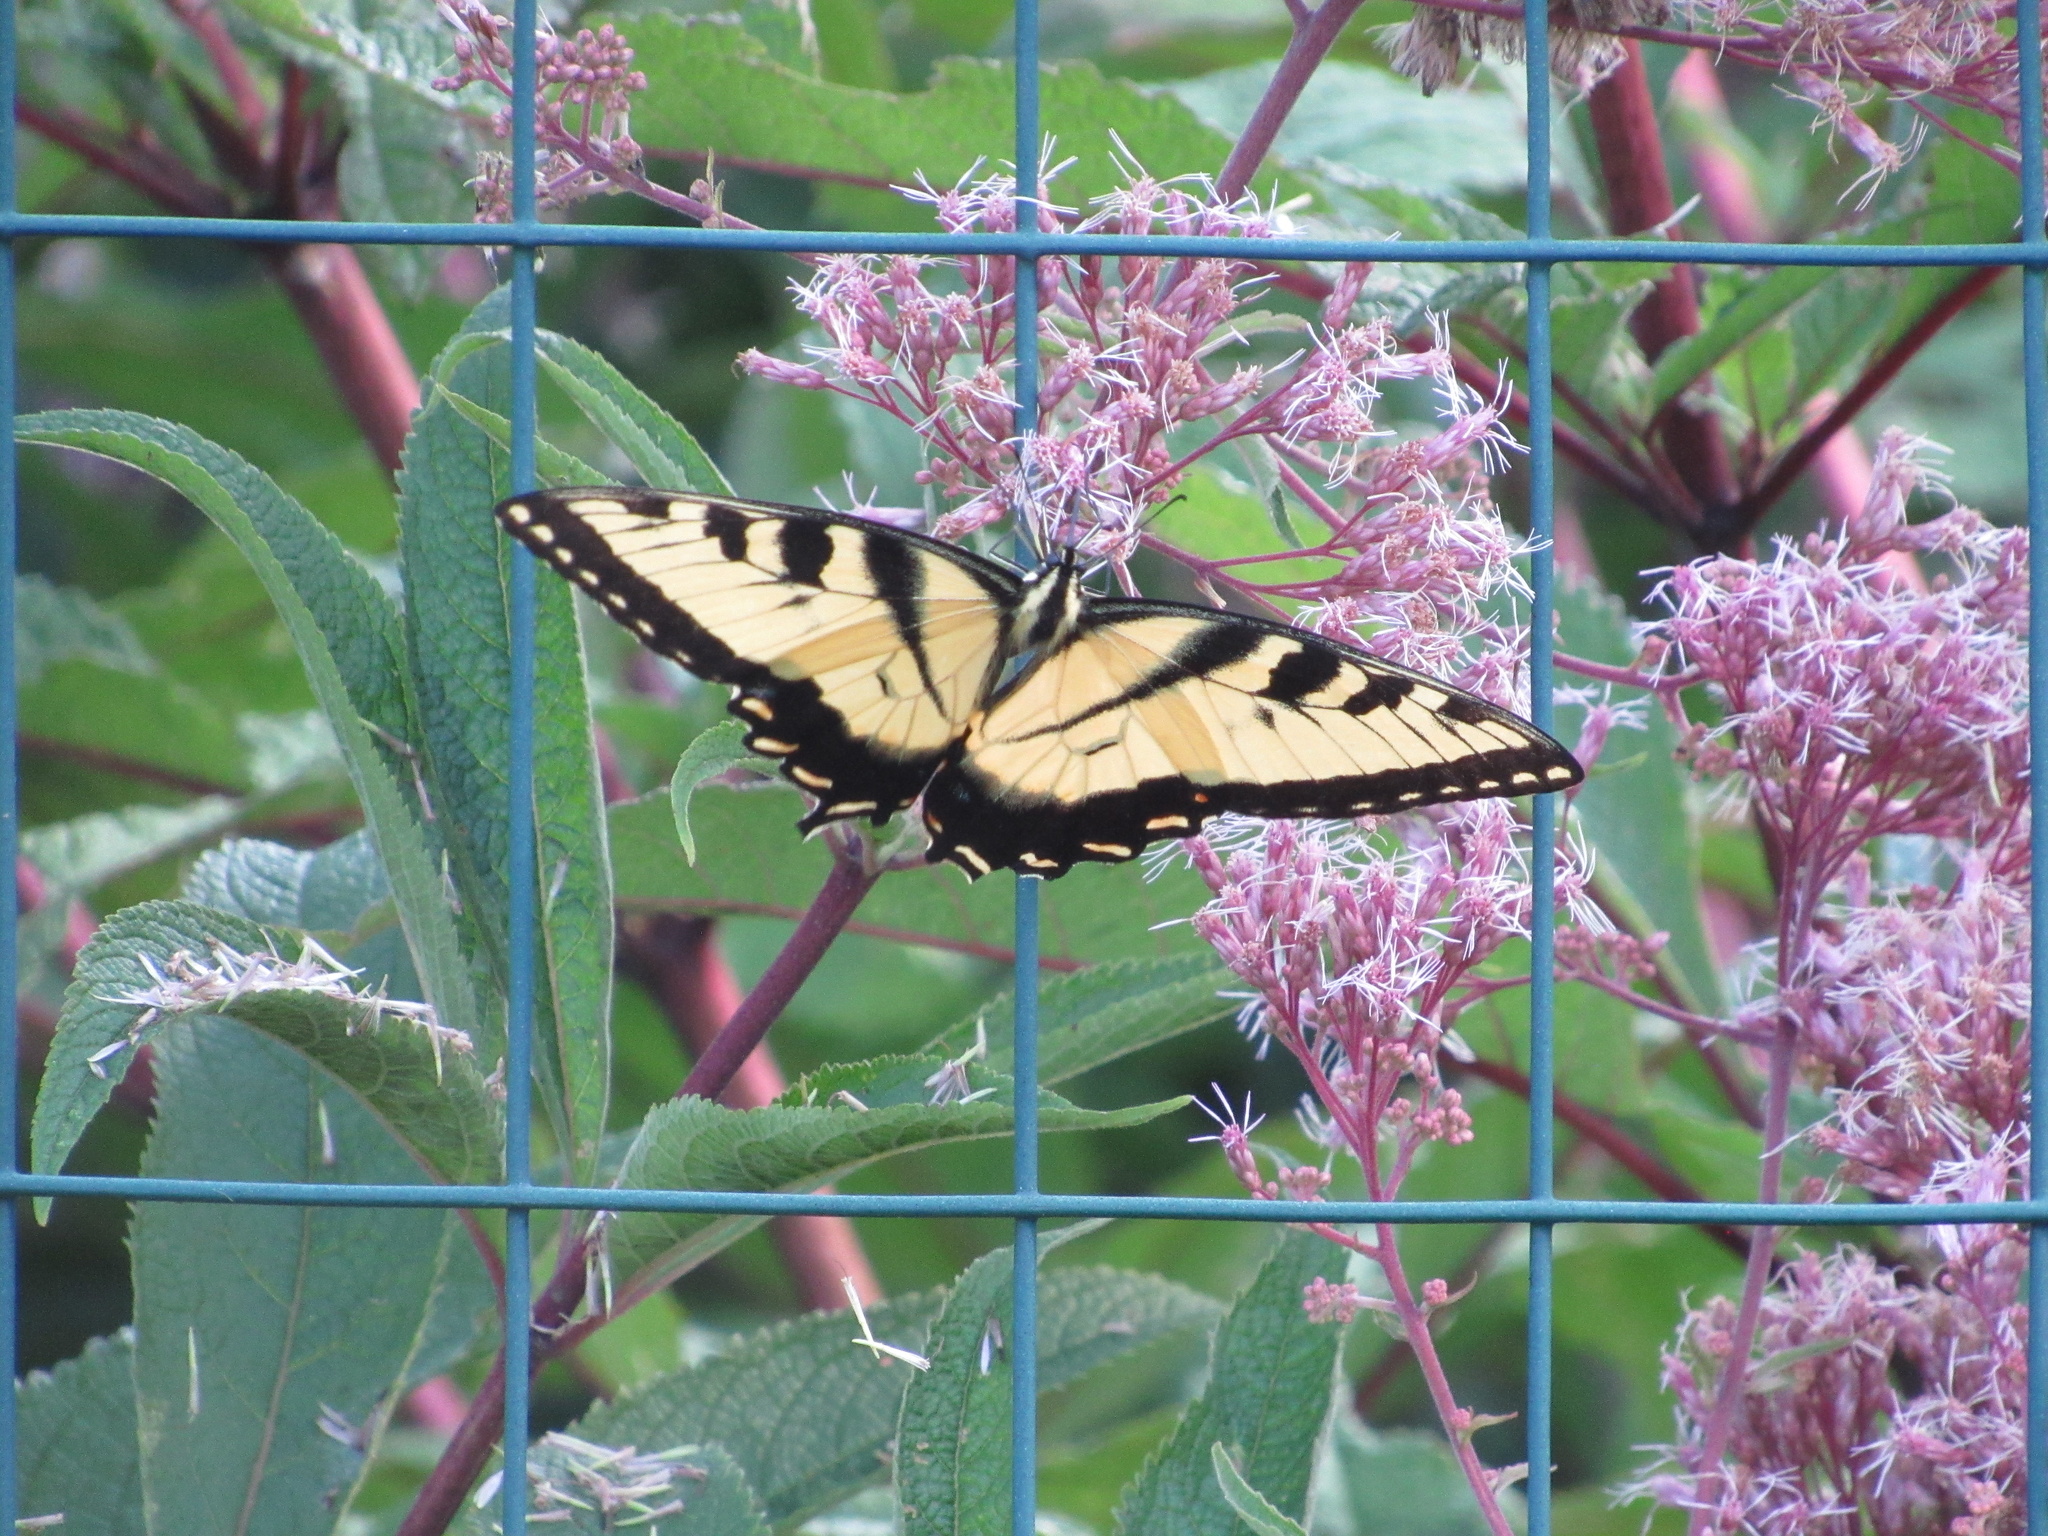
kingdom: Animalia
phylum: Arthropoda
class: Insecta
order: Lepidoptera
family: Papilionidae
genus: Papilio
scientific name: Papilio glaucus
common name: Tiger swallowtail
